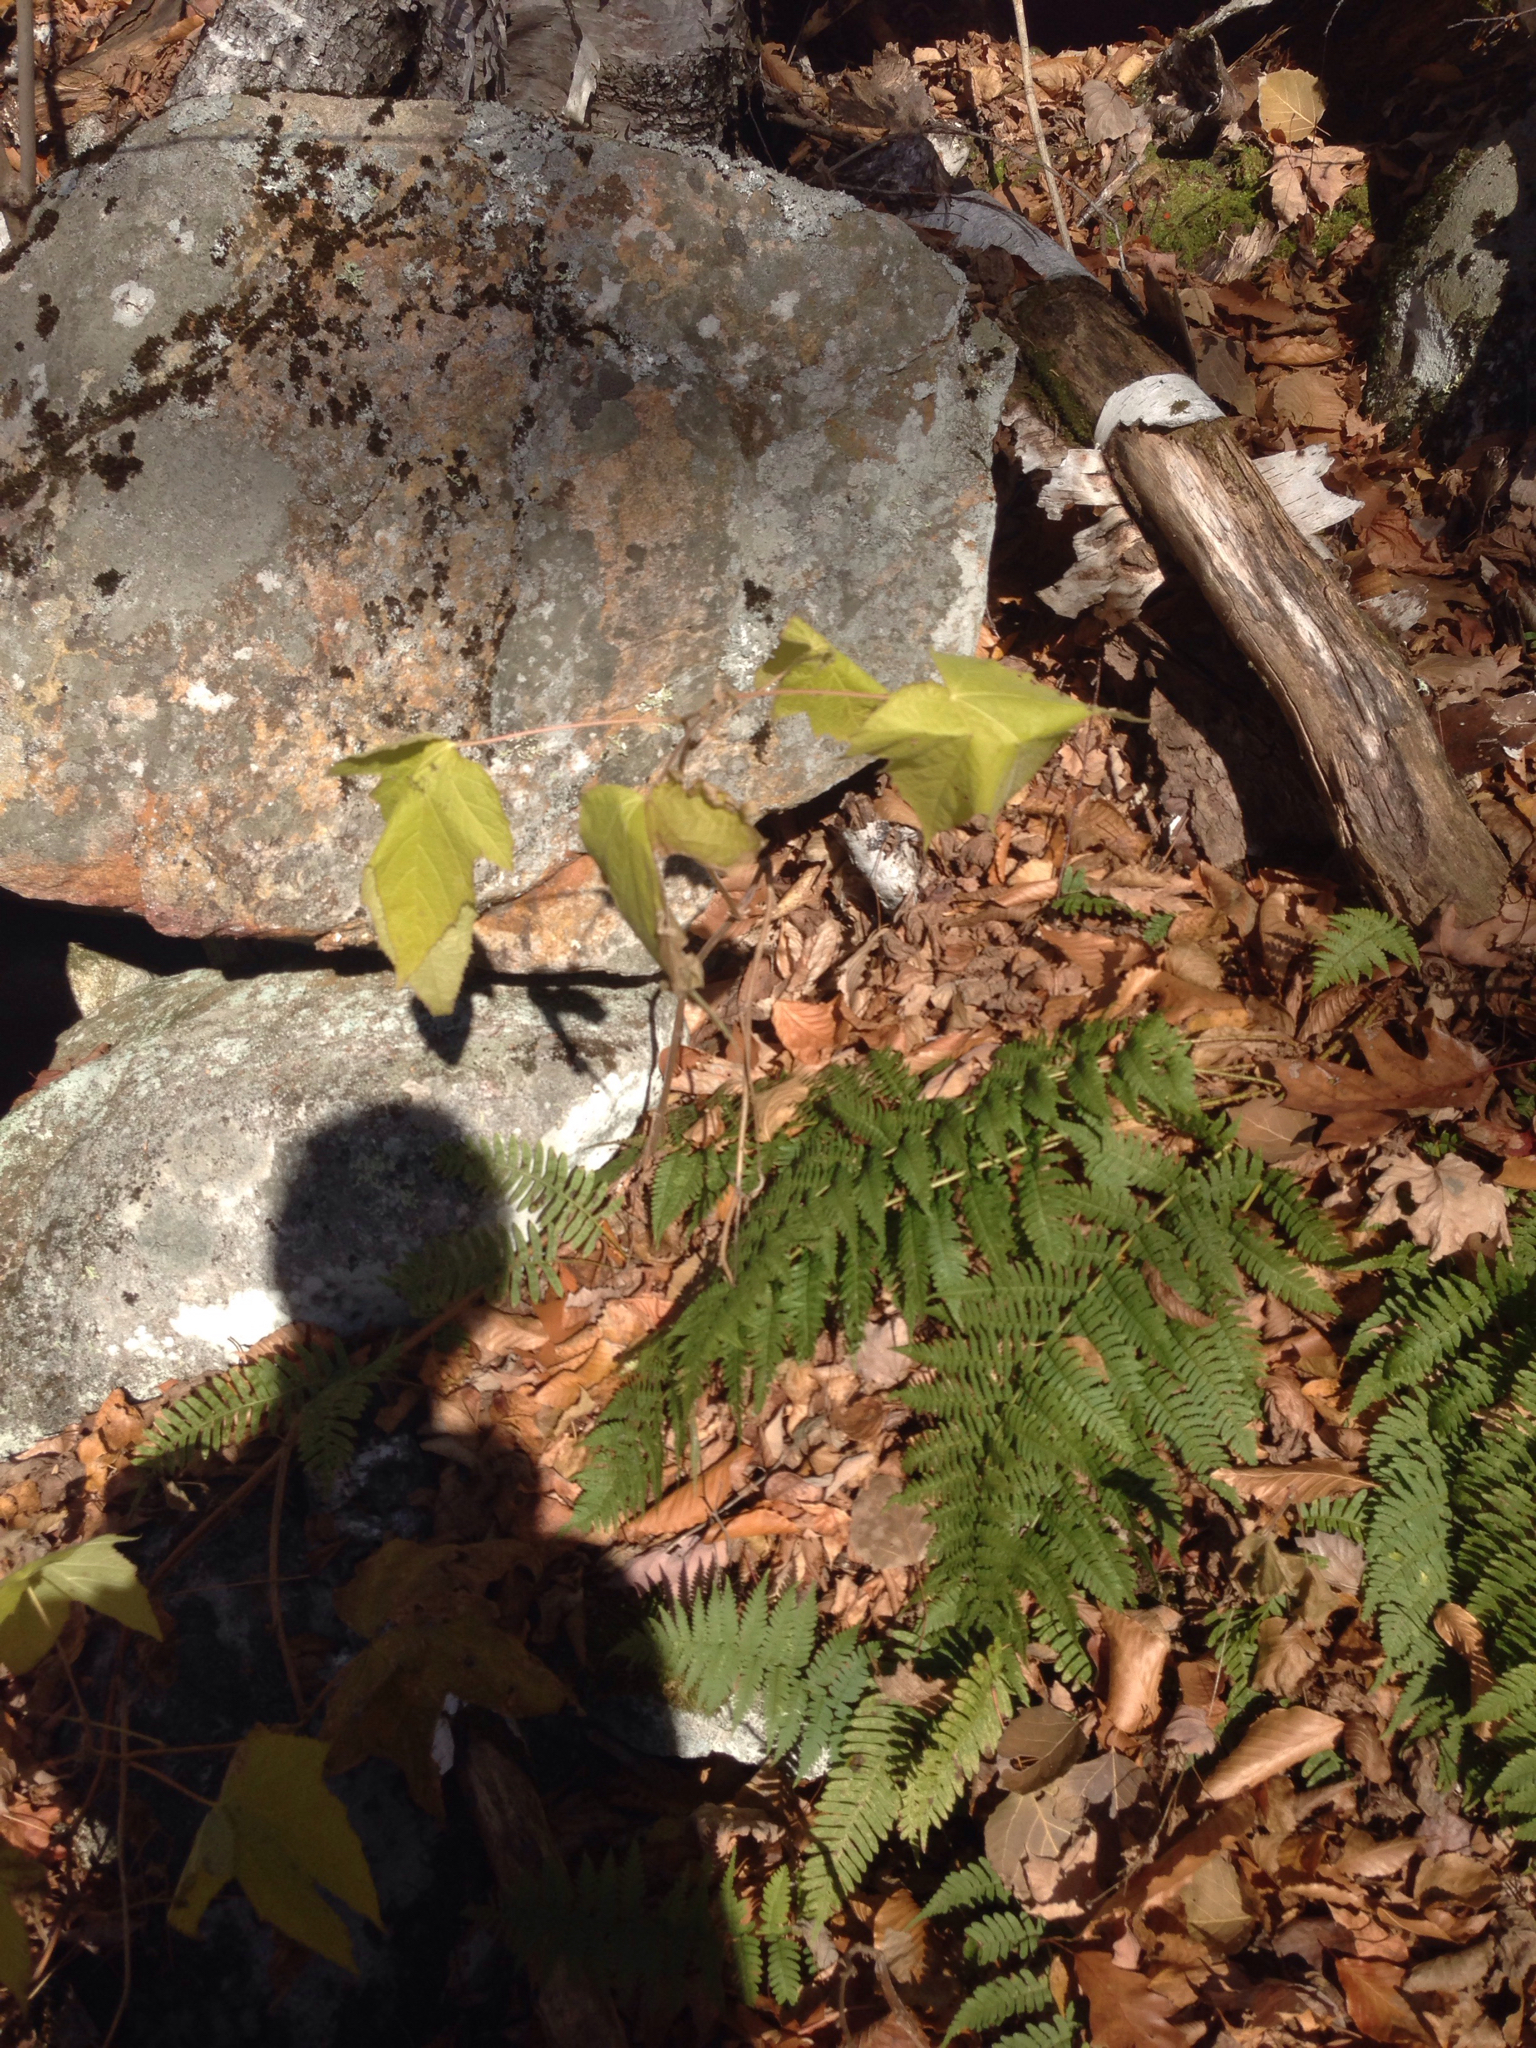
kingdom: Plantae
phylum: Tracheophyta
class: Magnoliopsida
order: Rosales
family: Rosaceae
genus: Rubus
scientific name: Rubus odoratus
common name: Purple-flowered raspberry
